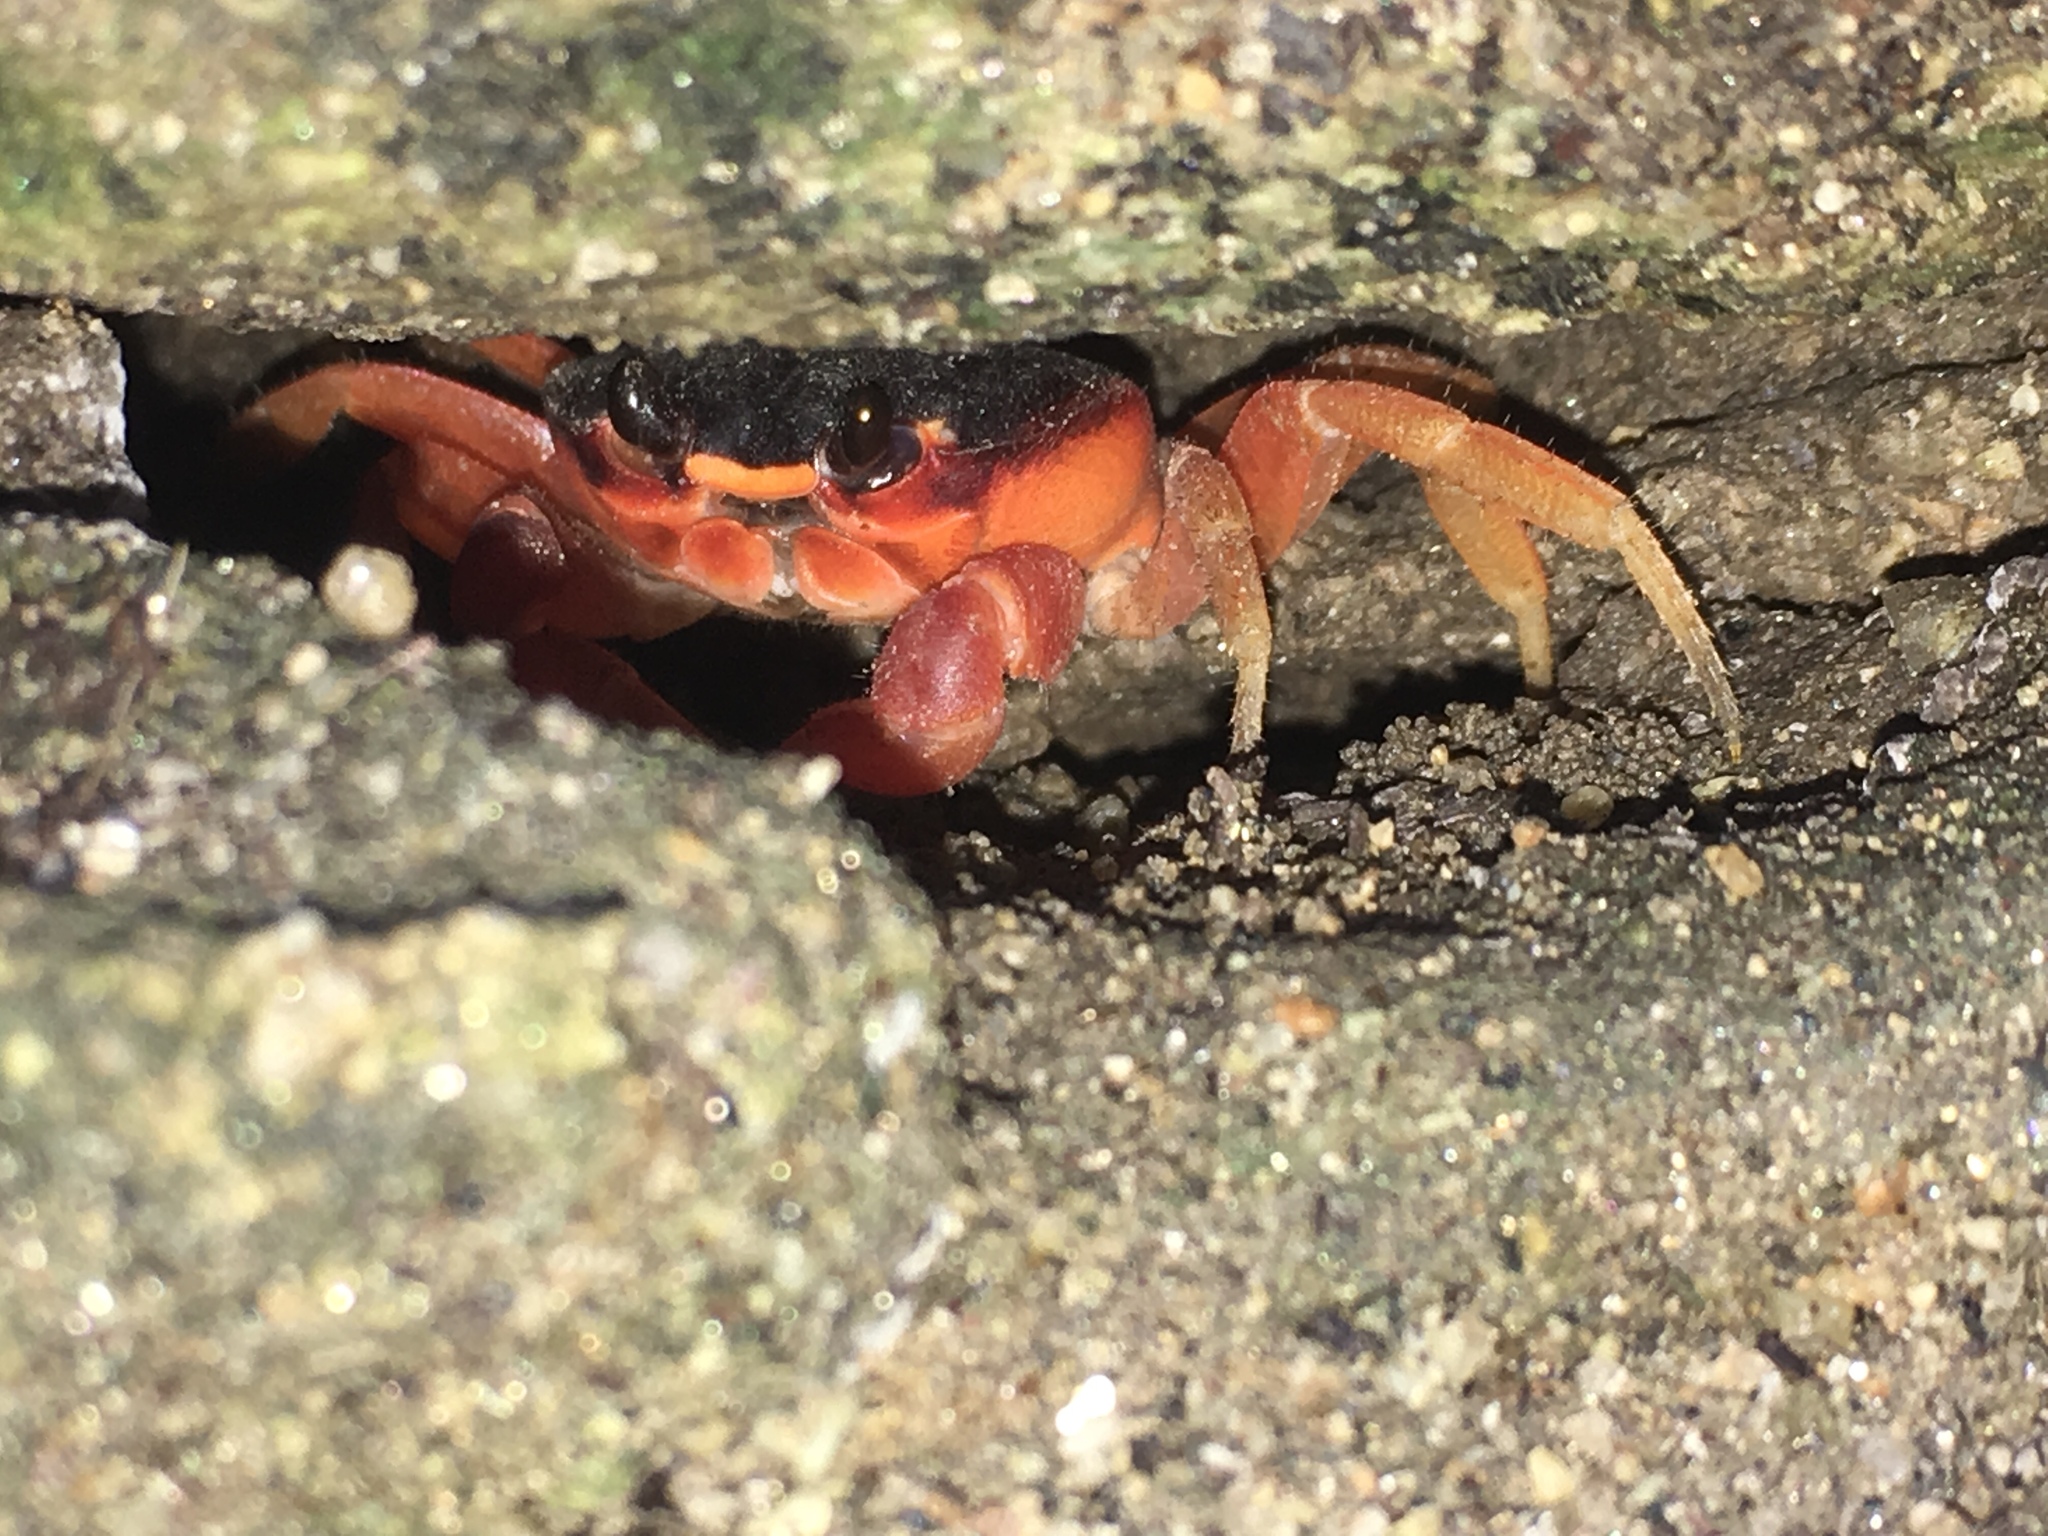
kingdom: Animalia
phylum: Arthropoda
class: Malacostraca
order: Decapoda
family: Gecarcinidae
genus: Gecarcinus
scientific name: Gecarcinus lateralis
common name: Bermuda land crab
